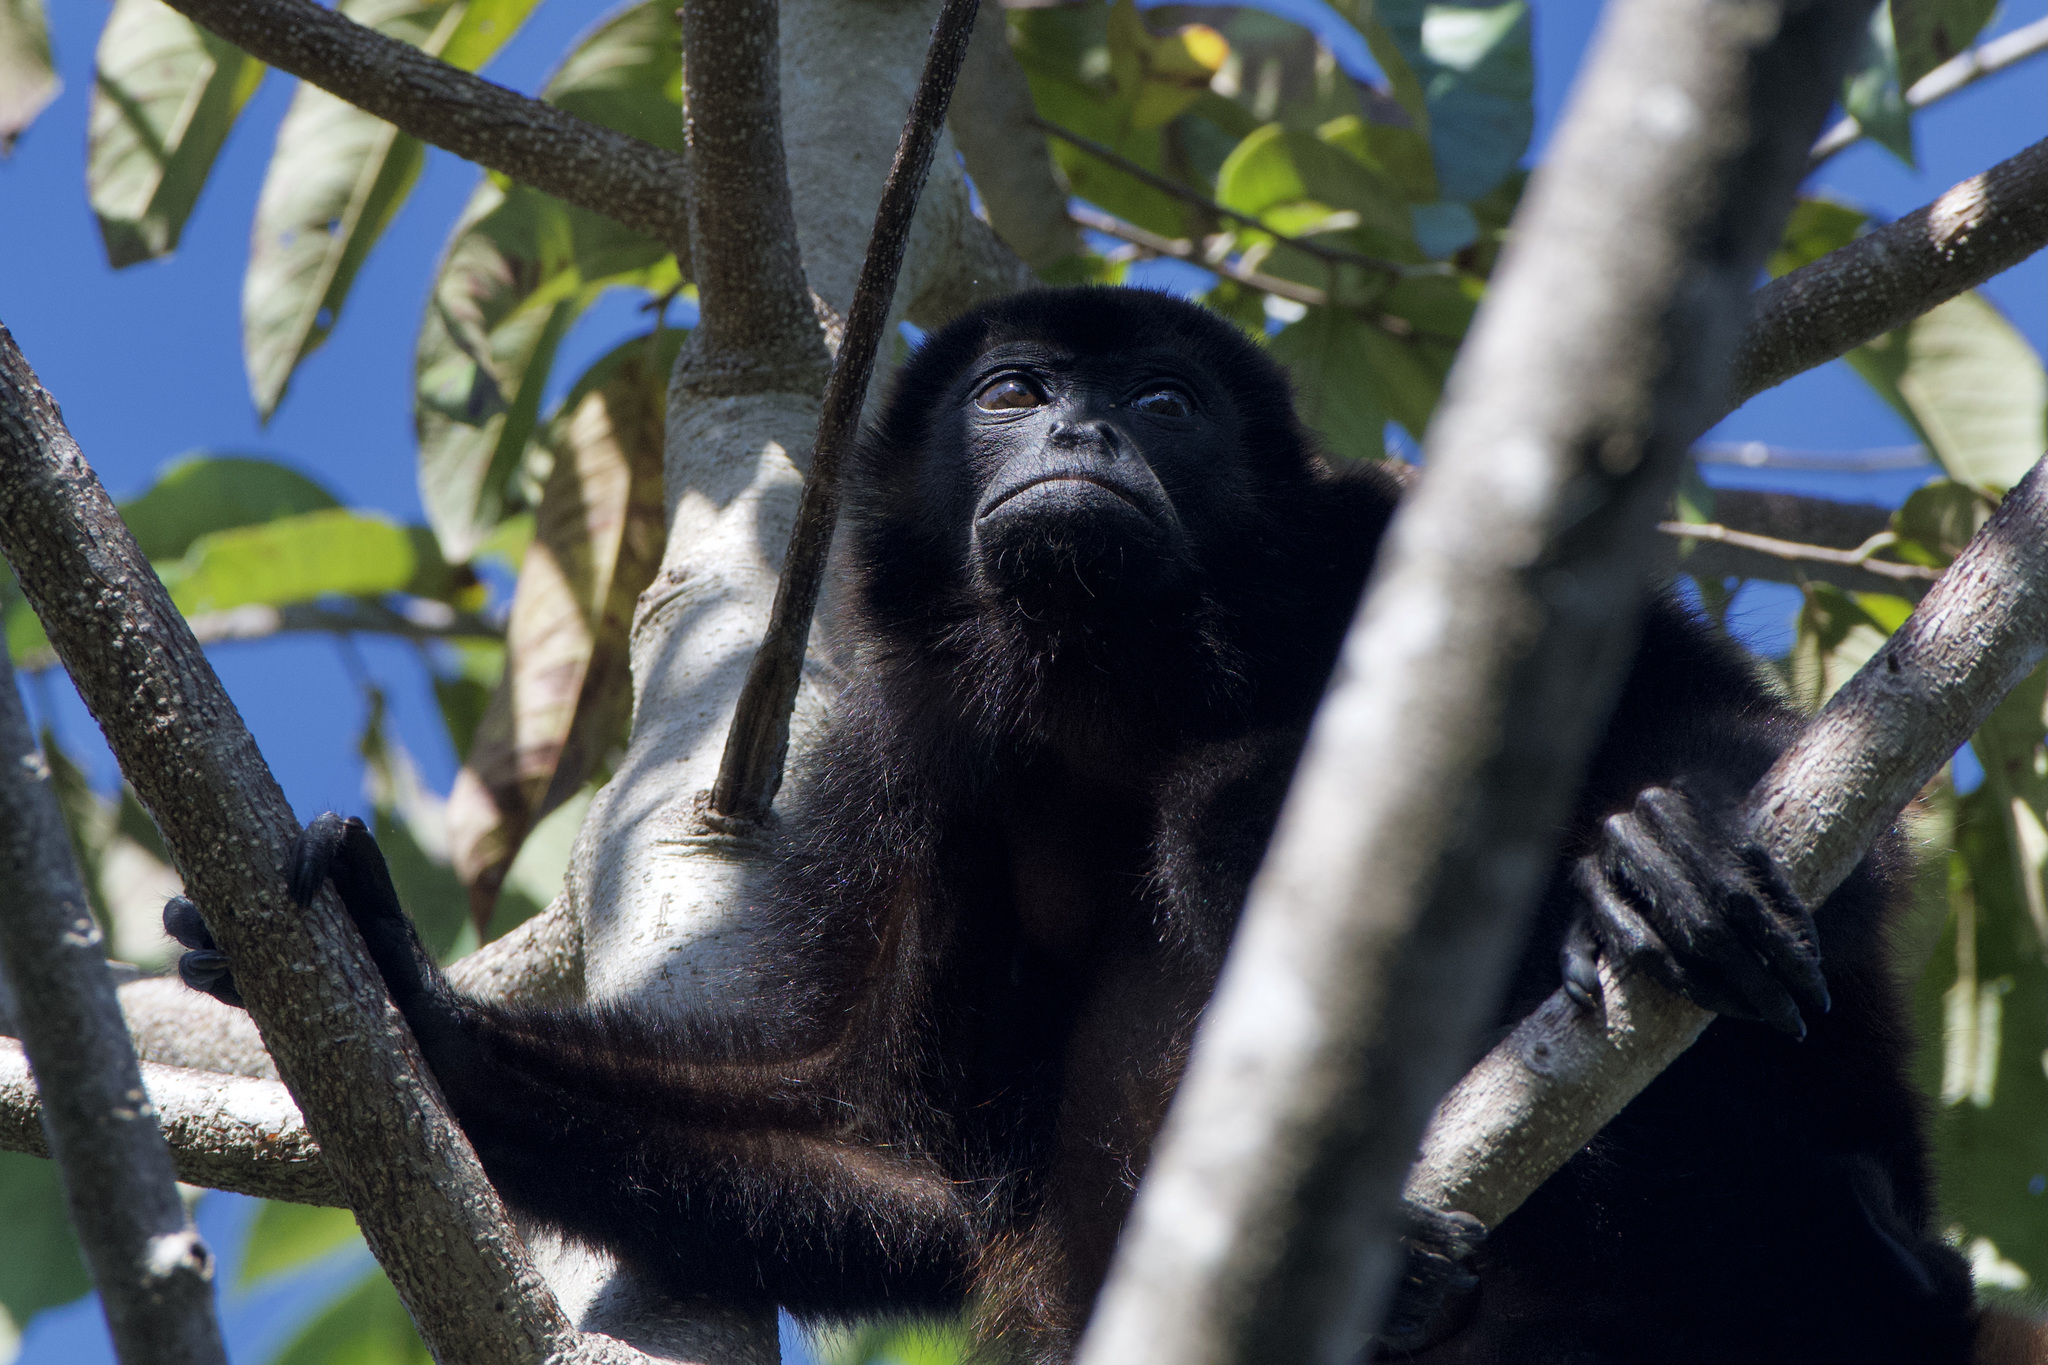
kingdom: Animalia
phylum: Chordata
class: Mammalia
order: Primates
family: Atelidae
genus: Alouatta
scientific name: Alouatta palliata
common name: Mantled howler
